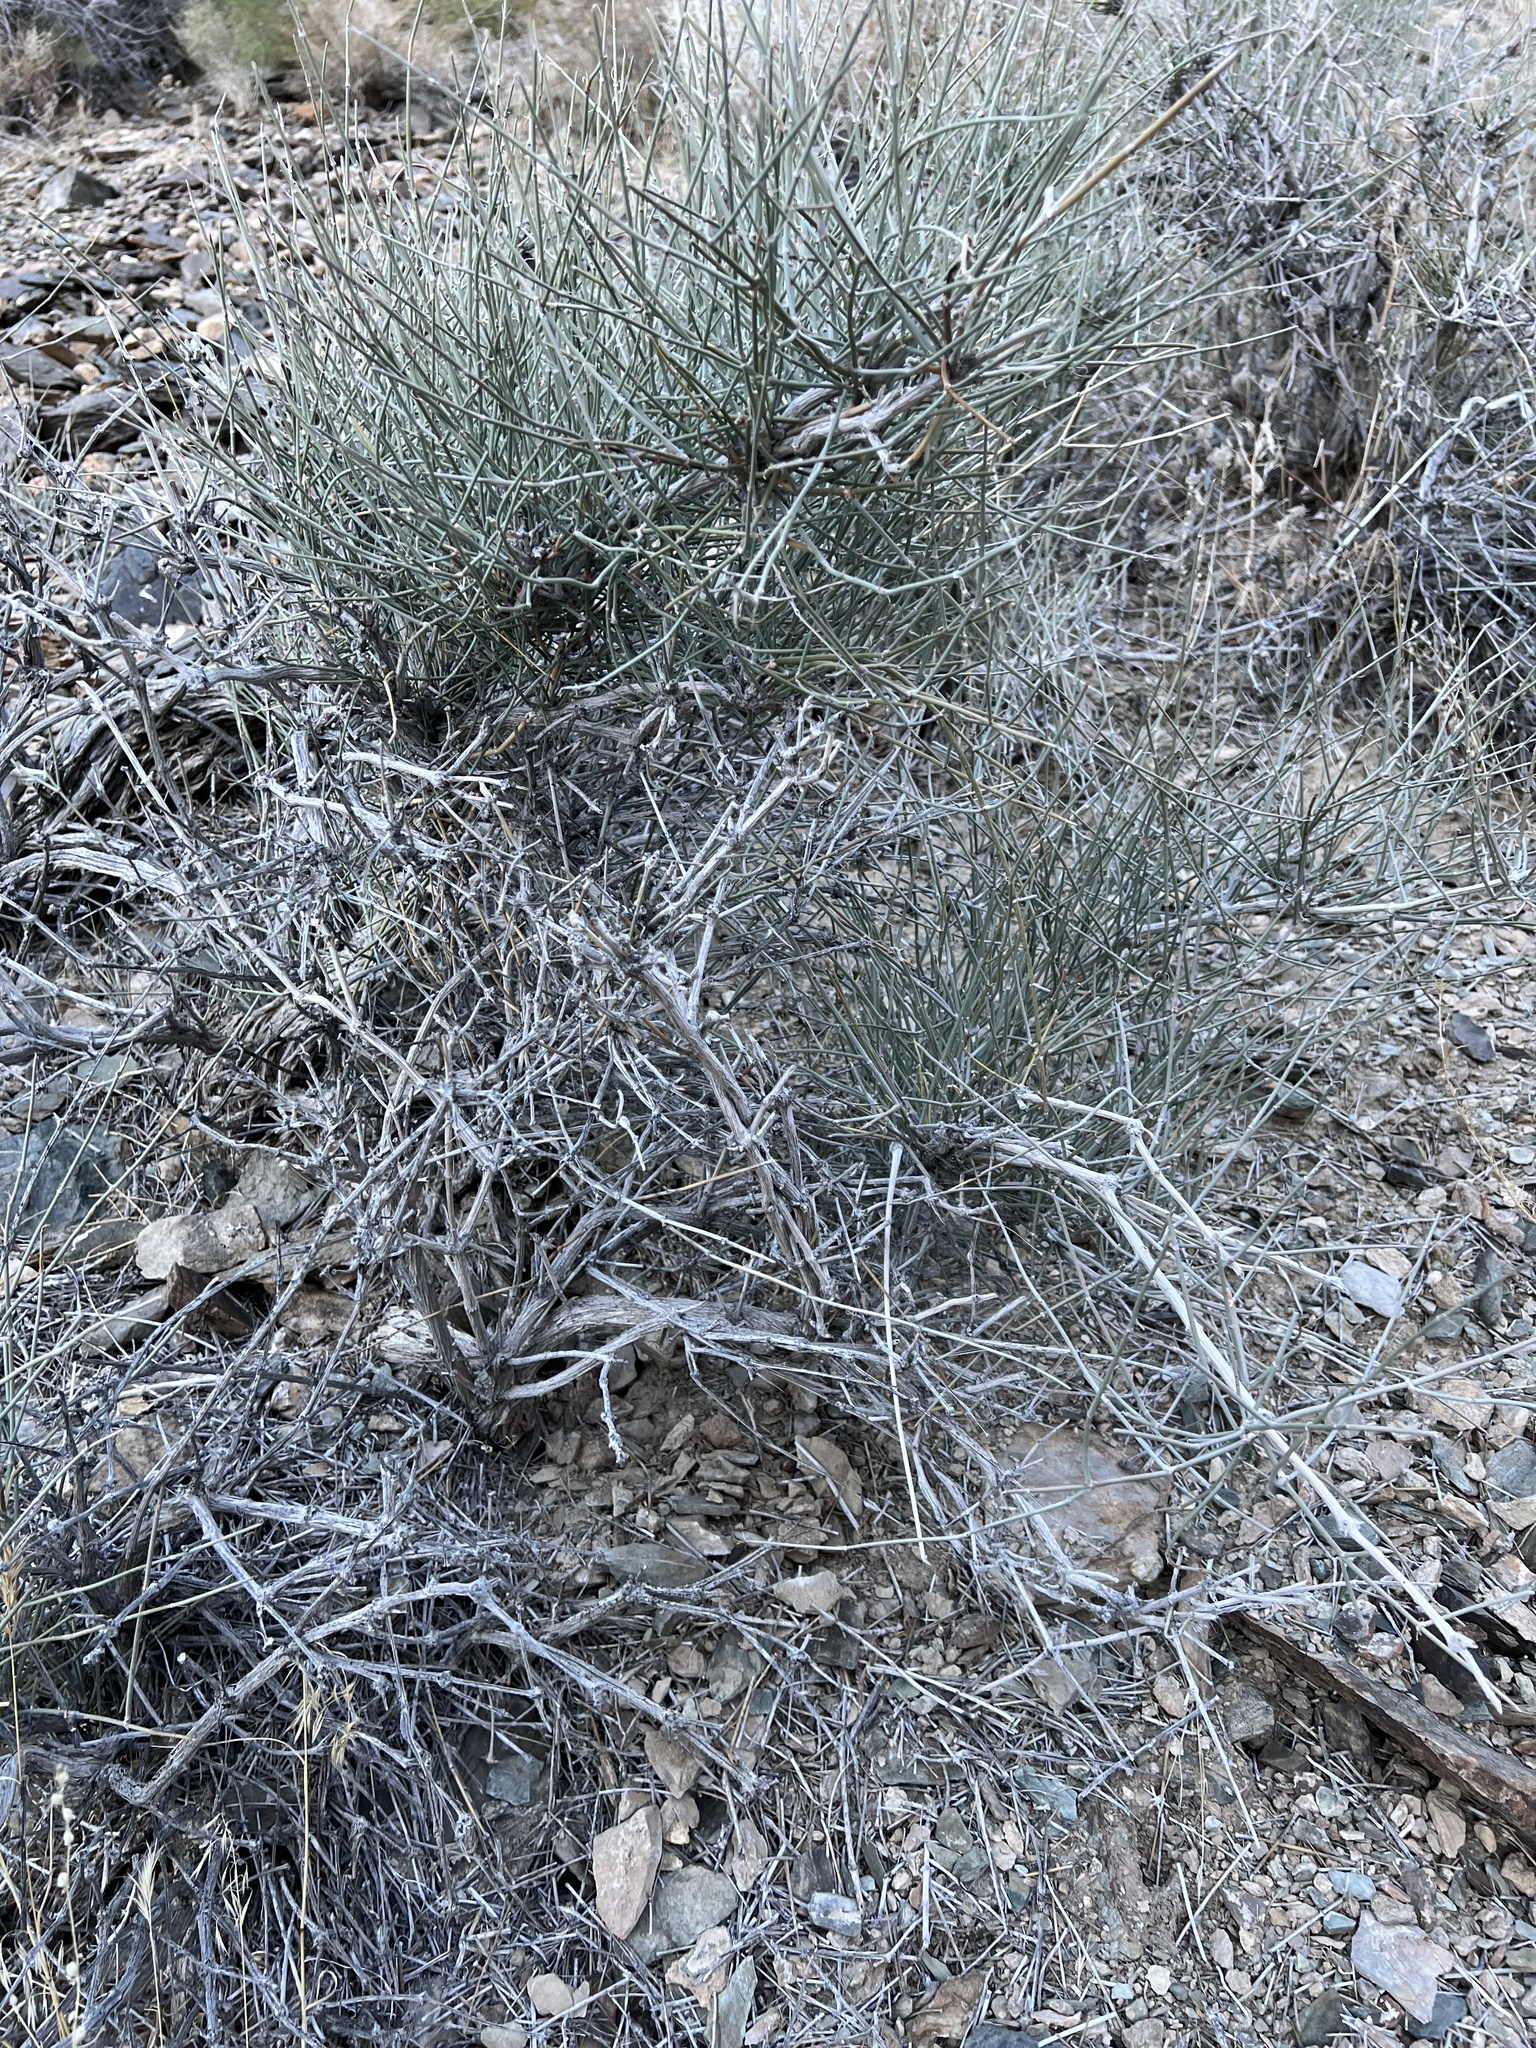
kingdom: Plantae
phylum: Tracheophyta
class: Gnetopsida
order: Ephedrales
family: Ephedraceae
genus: Ephedra
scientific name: Ephedra nevadensis
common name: Gray ephedra
